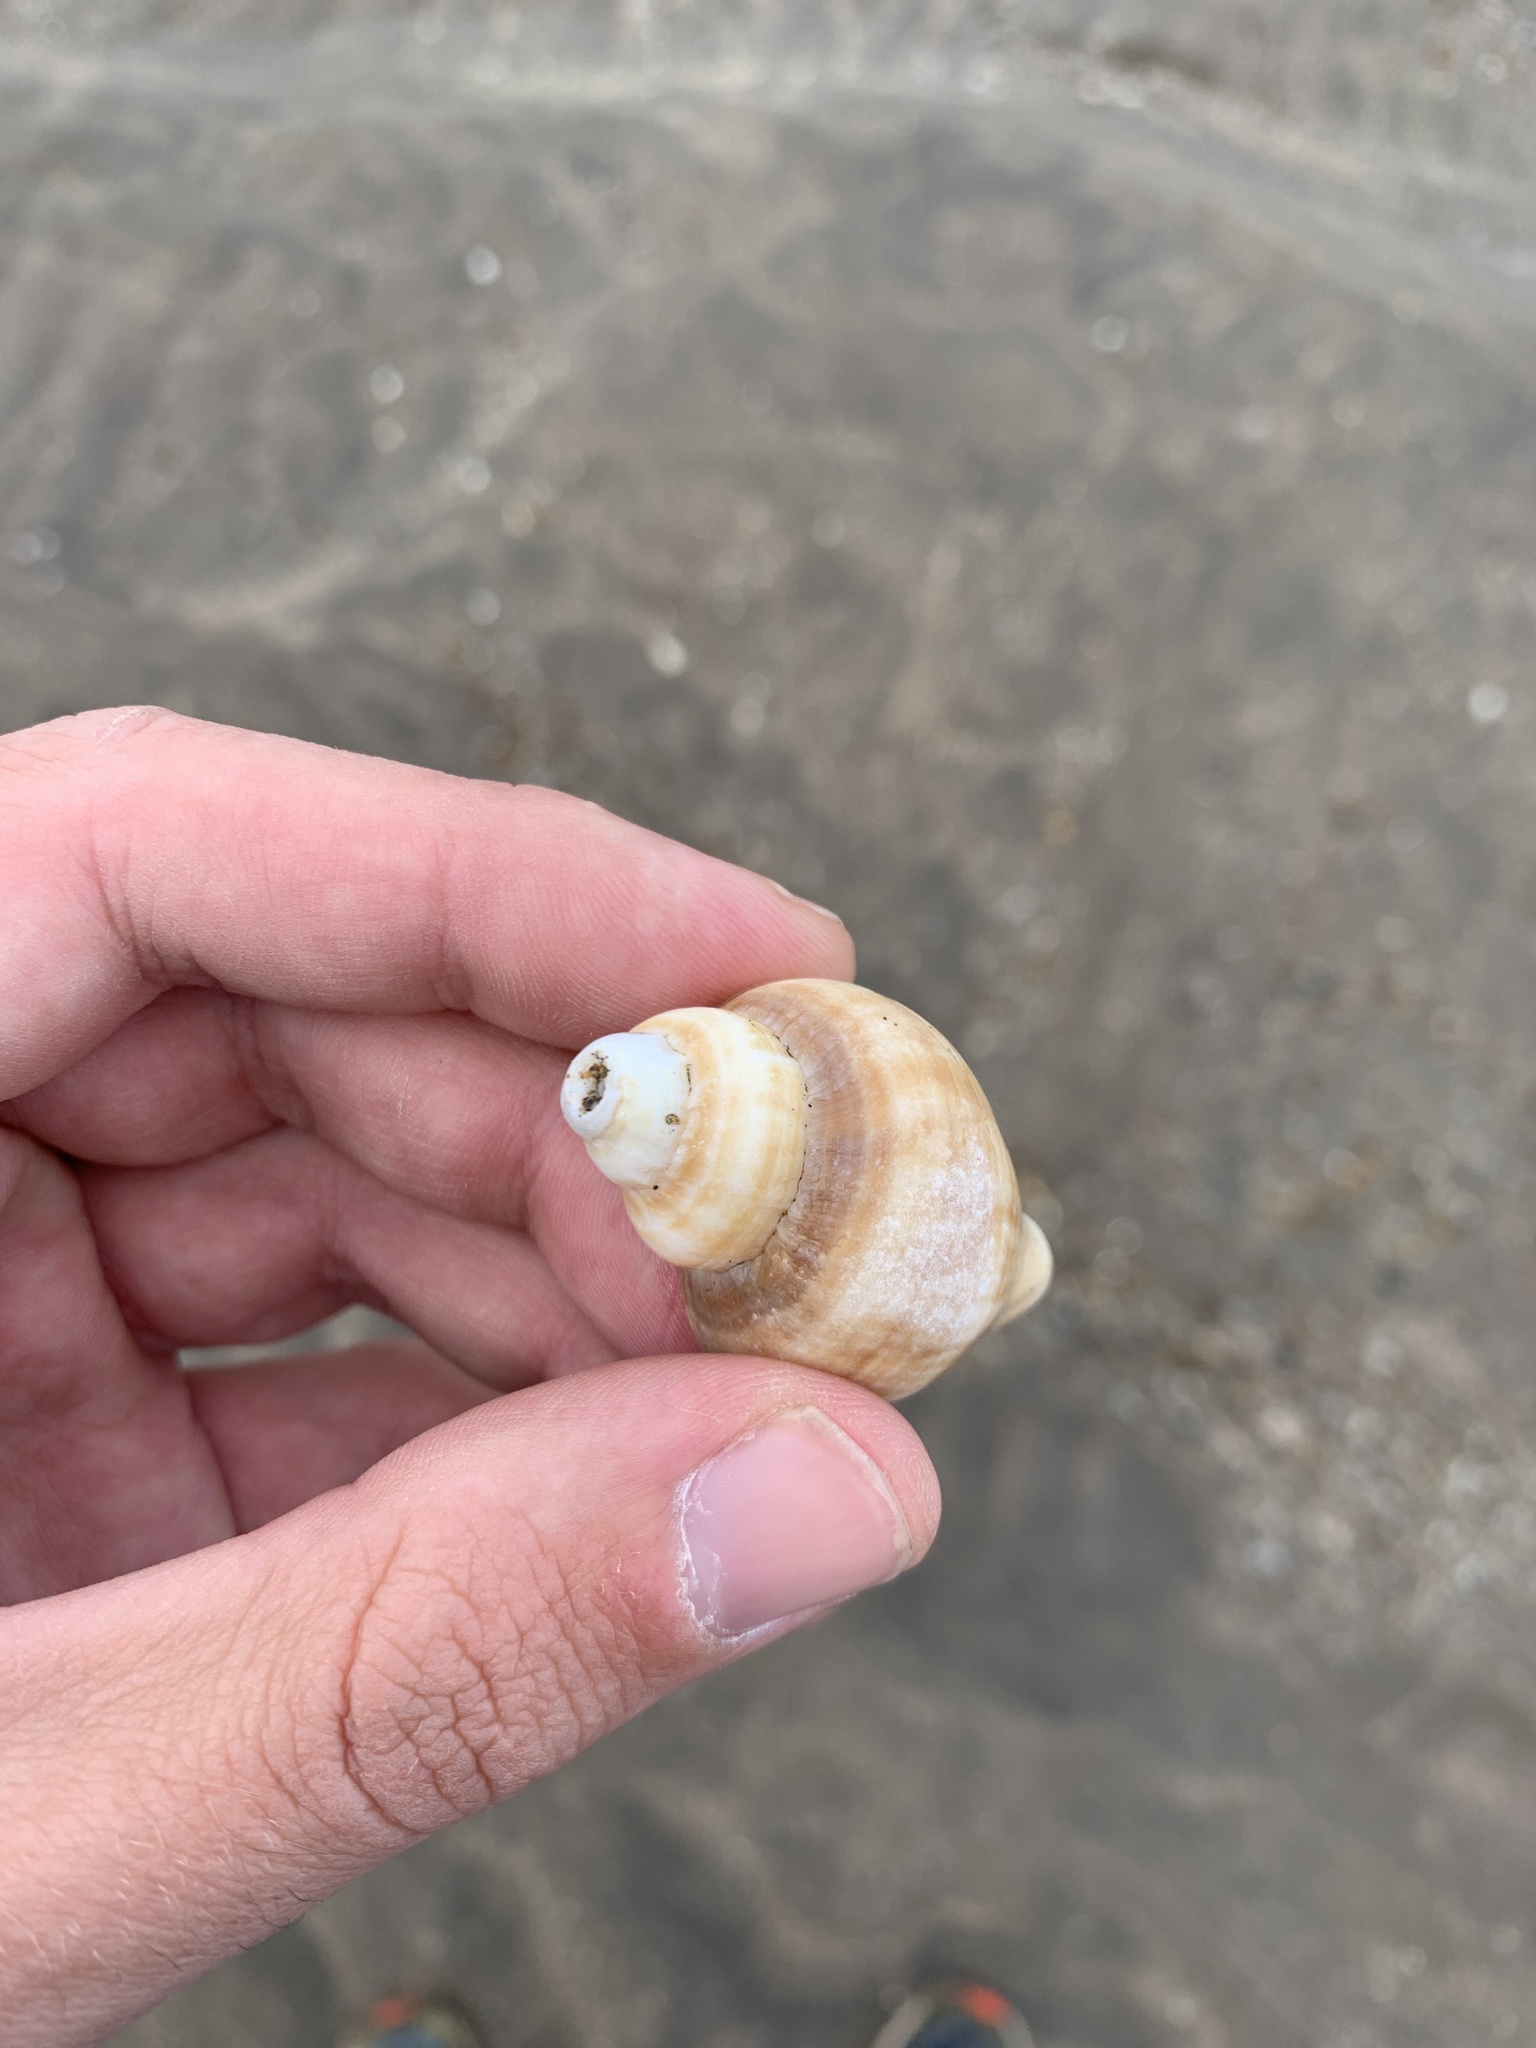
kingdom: Animalia
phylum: Mollusca
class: Gastropoda
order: Neogastropoda
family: Muricidae
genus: Trophon
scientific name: Trophon geversianus
